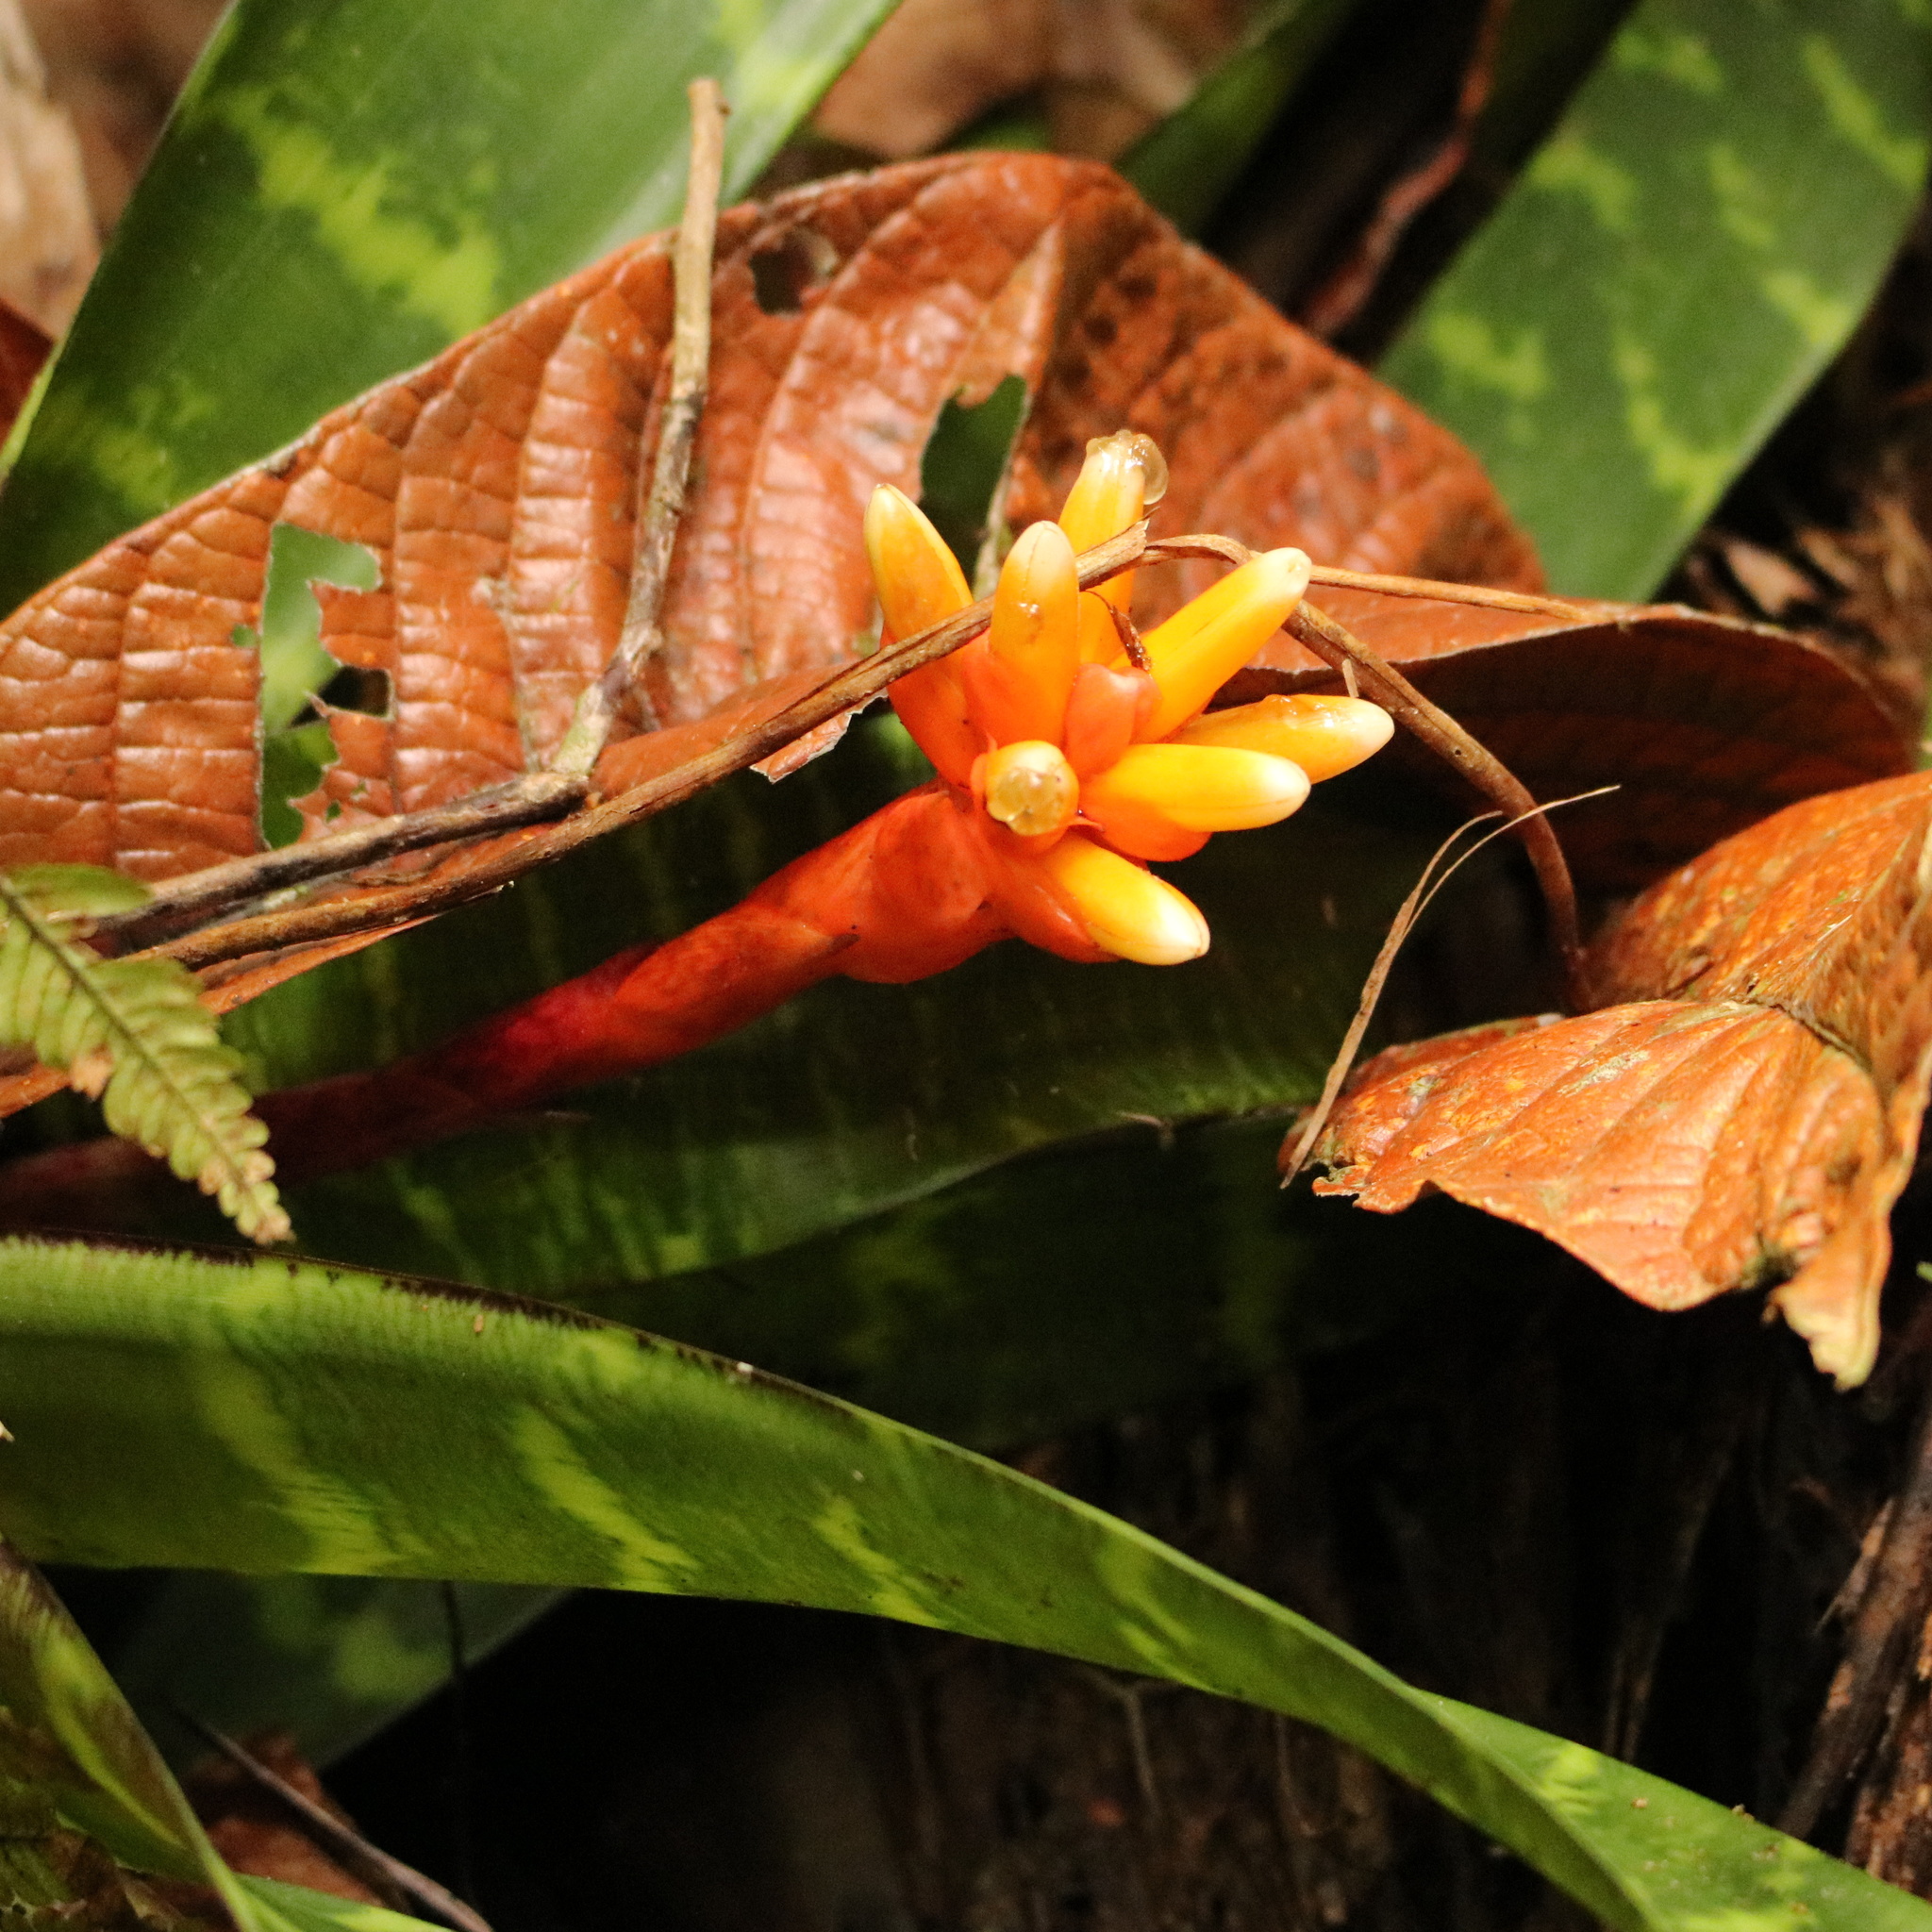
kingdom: Plantae
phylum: Tracheophyta
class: Liliopsida
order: Poales
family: Bromeliaceae
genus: Guzmania
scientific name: Guzmania musaica
